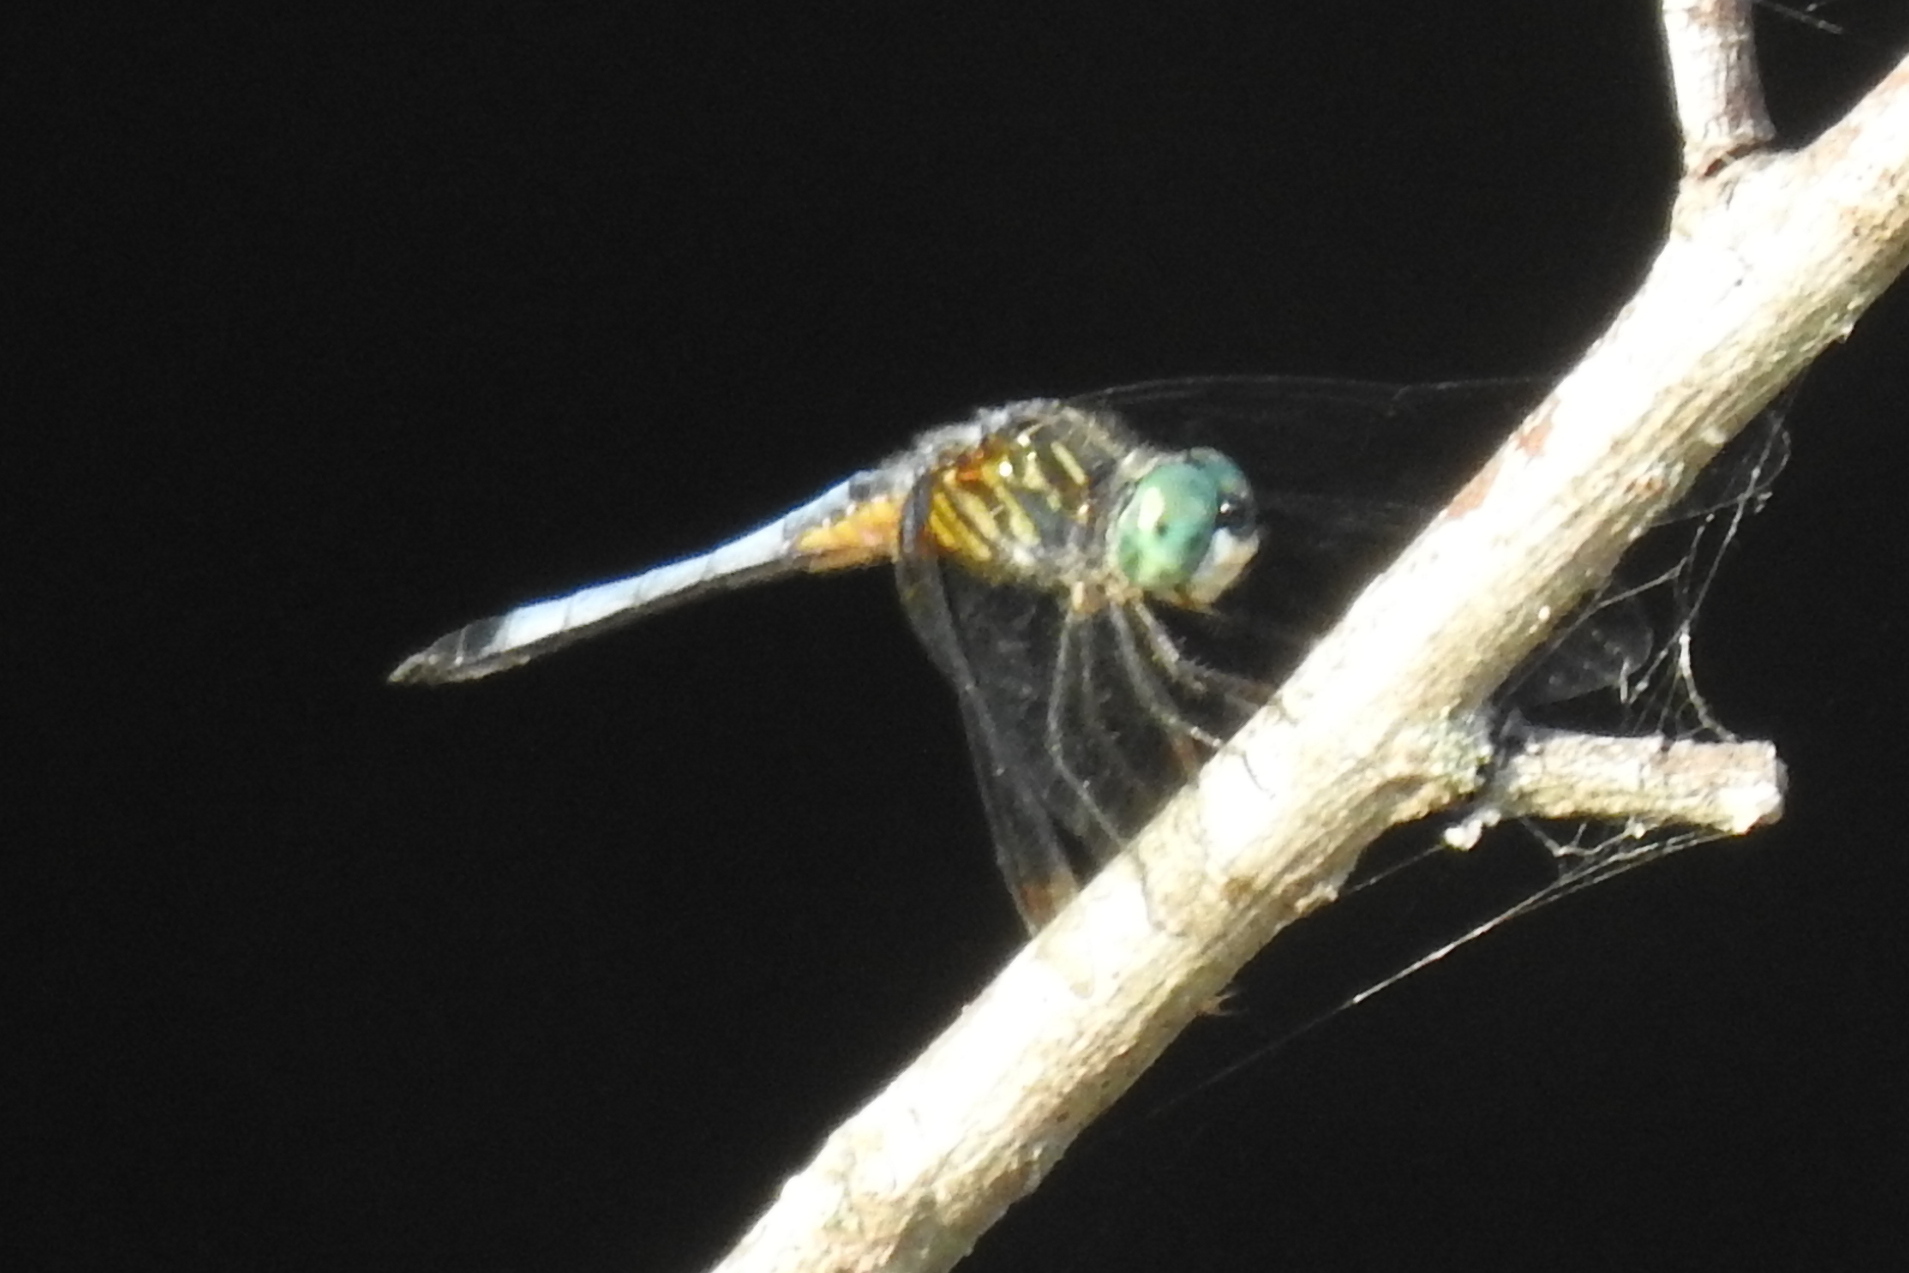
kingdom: Animalia
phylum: Arthropoda
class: Insecta
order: Odonata
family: Libellulidae
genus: Pachydiplax
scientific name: Pachydiplax longipennis
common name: Blue dasher
